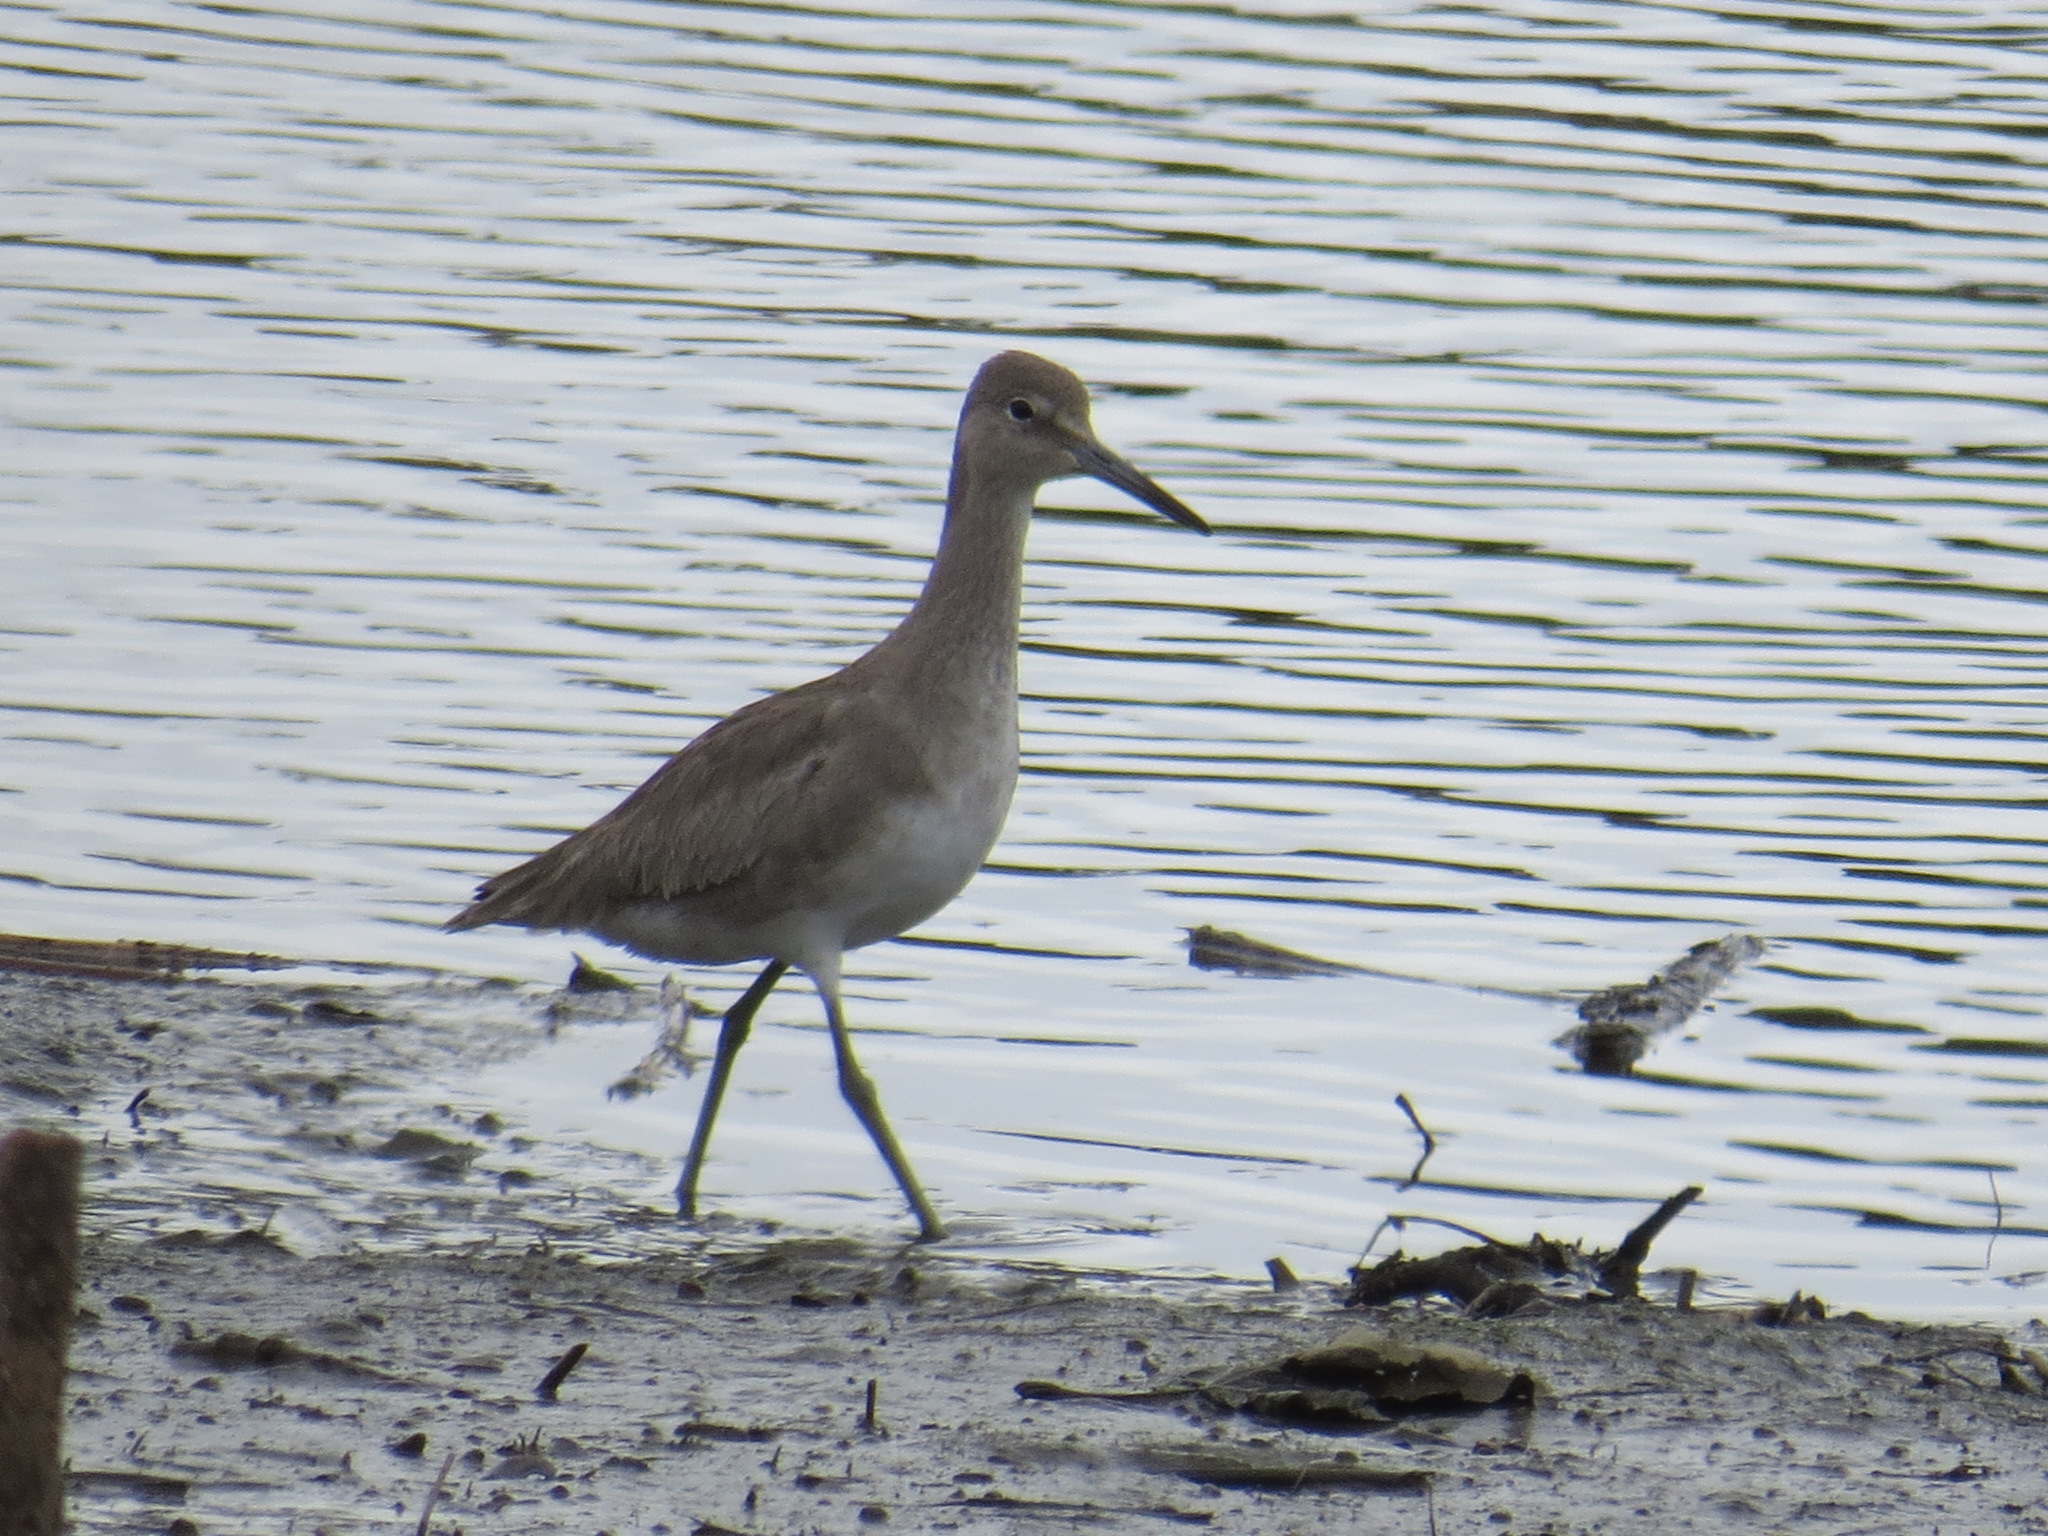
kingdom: Animalia
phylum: Chordata
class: Aves
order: Charadriiformes
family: Scolopacidae
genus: Tringa
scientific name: Tringa semipalmata
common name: Willet
